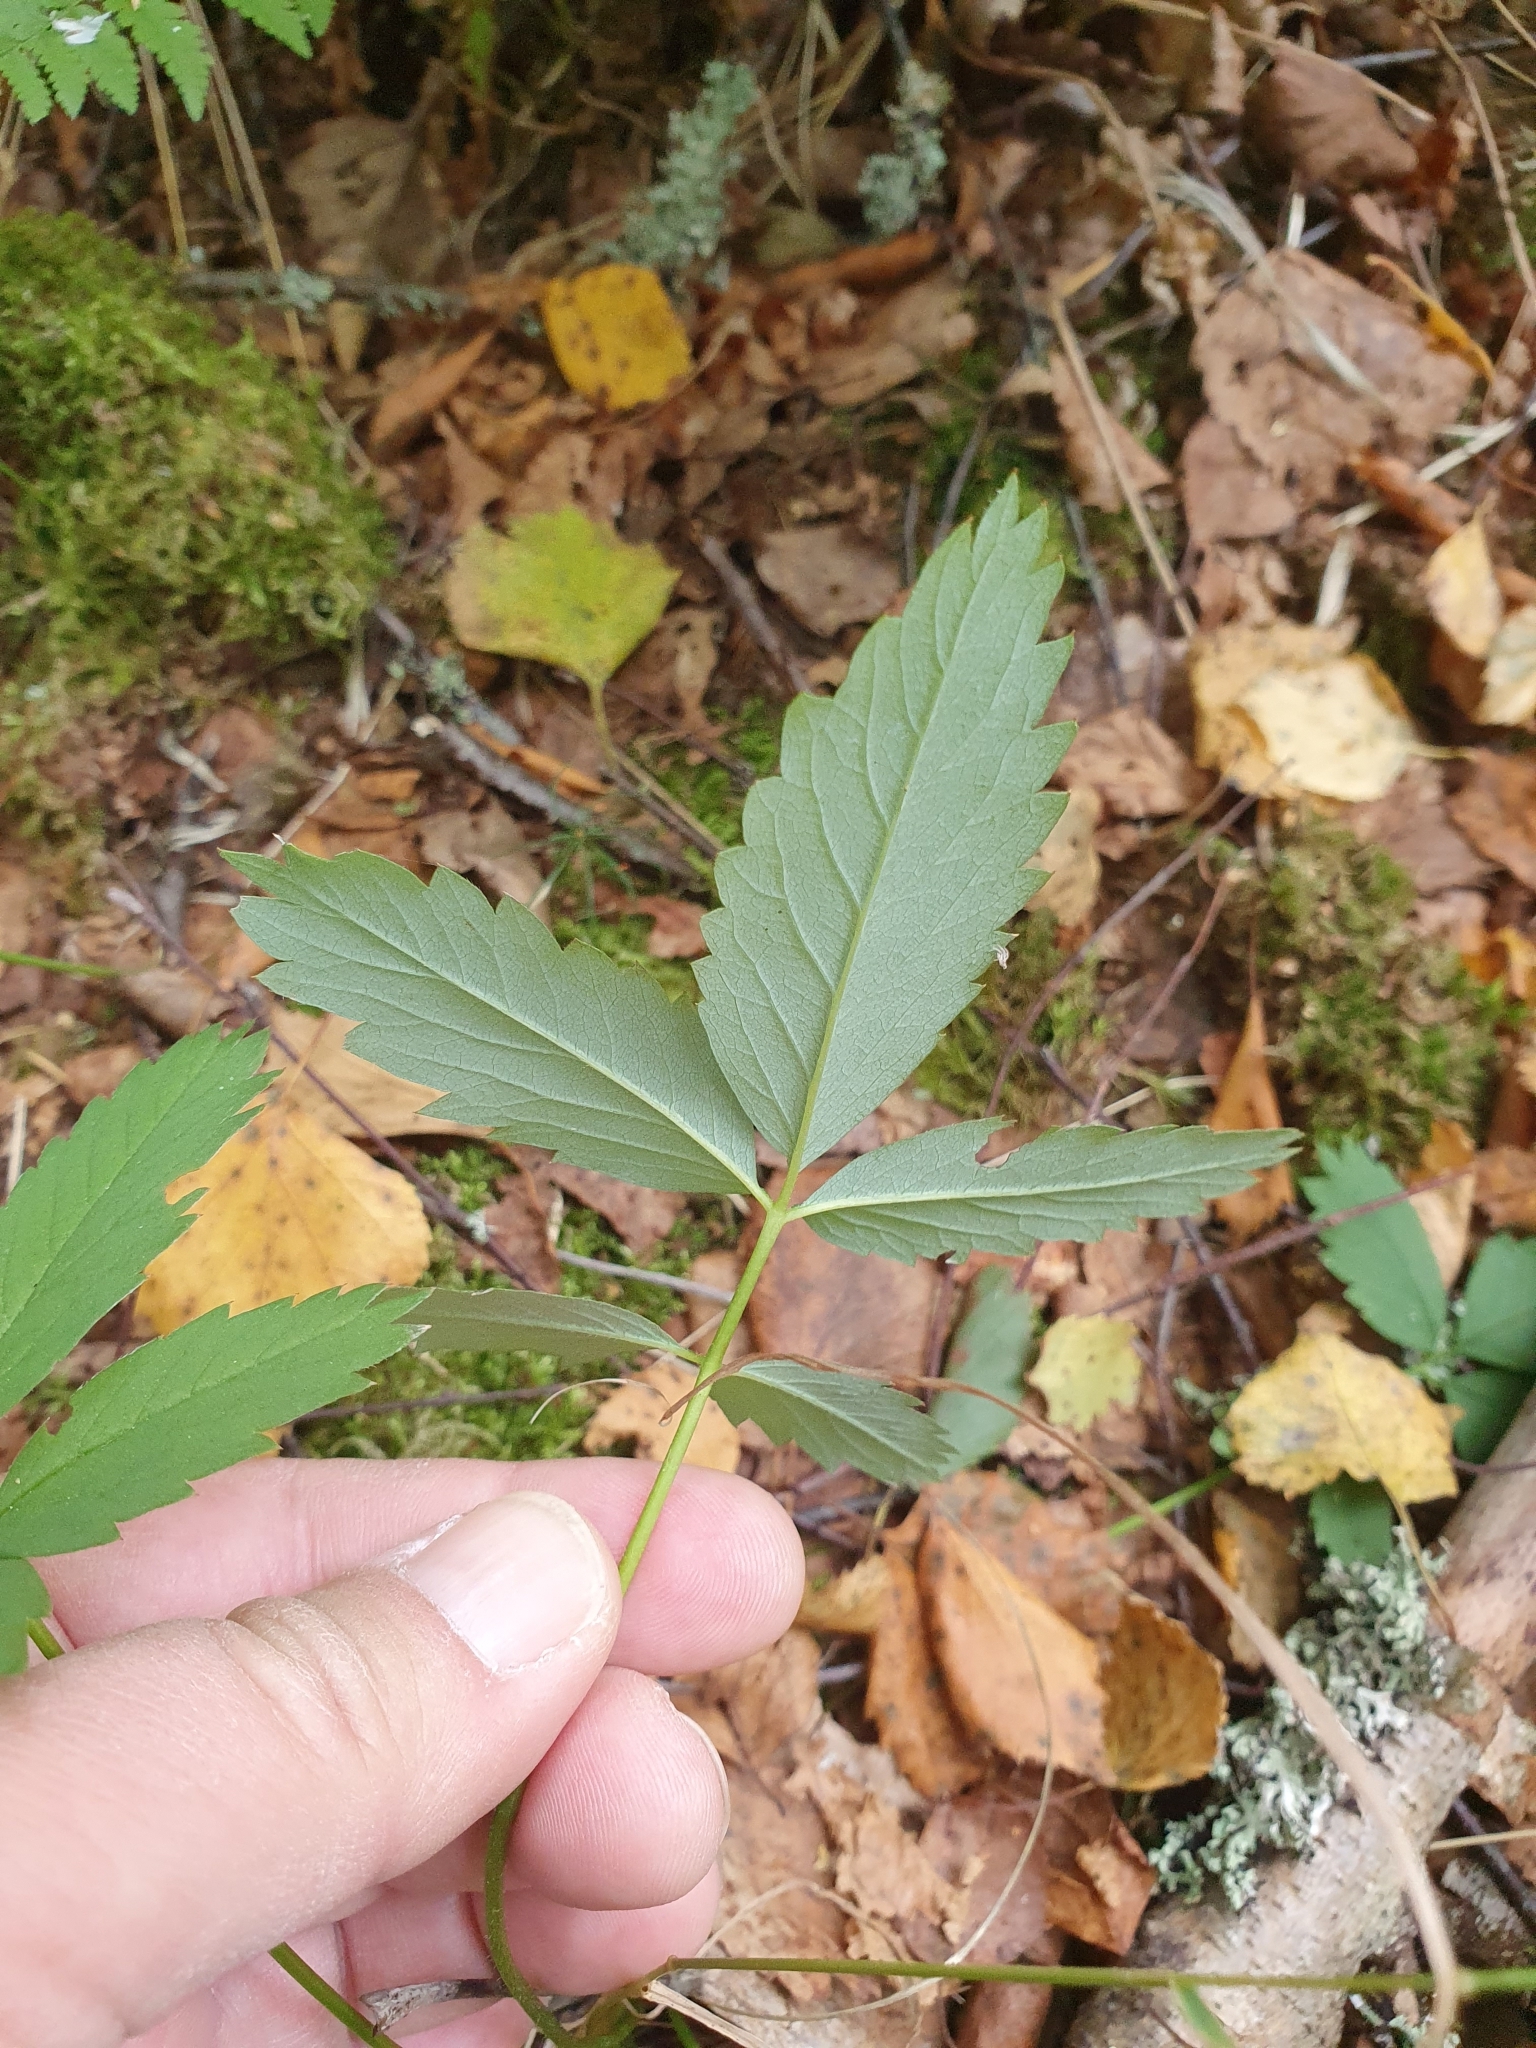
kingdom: Plantae
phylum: Tracheophyta
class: Magnoliopsida
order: Rosales
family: Rosaceae
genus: Comarum
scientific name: Comarum palustre
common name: Marsh cinquefoil
